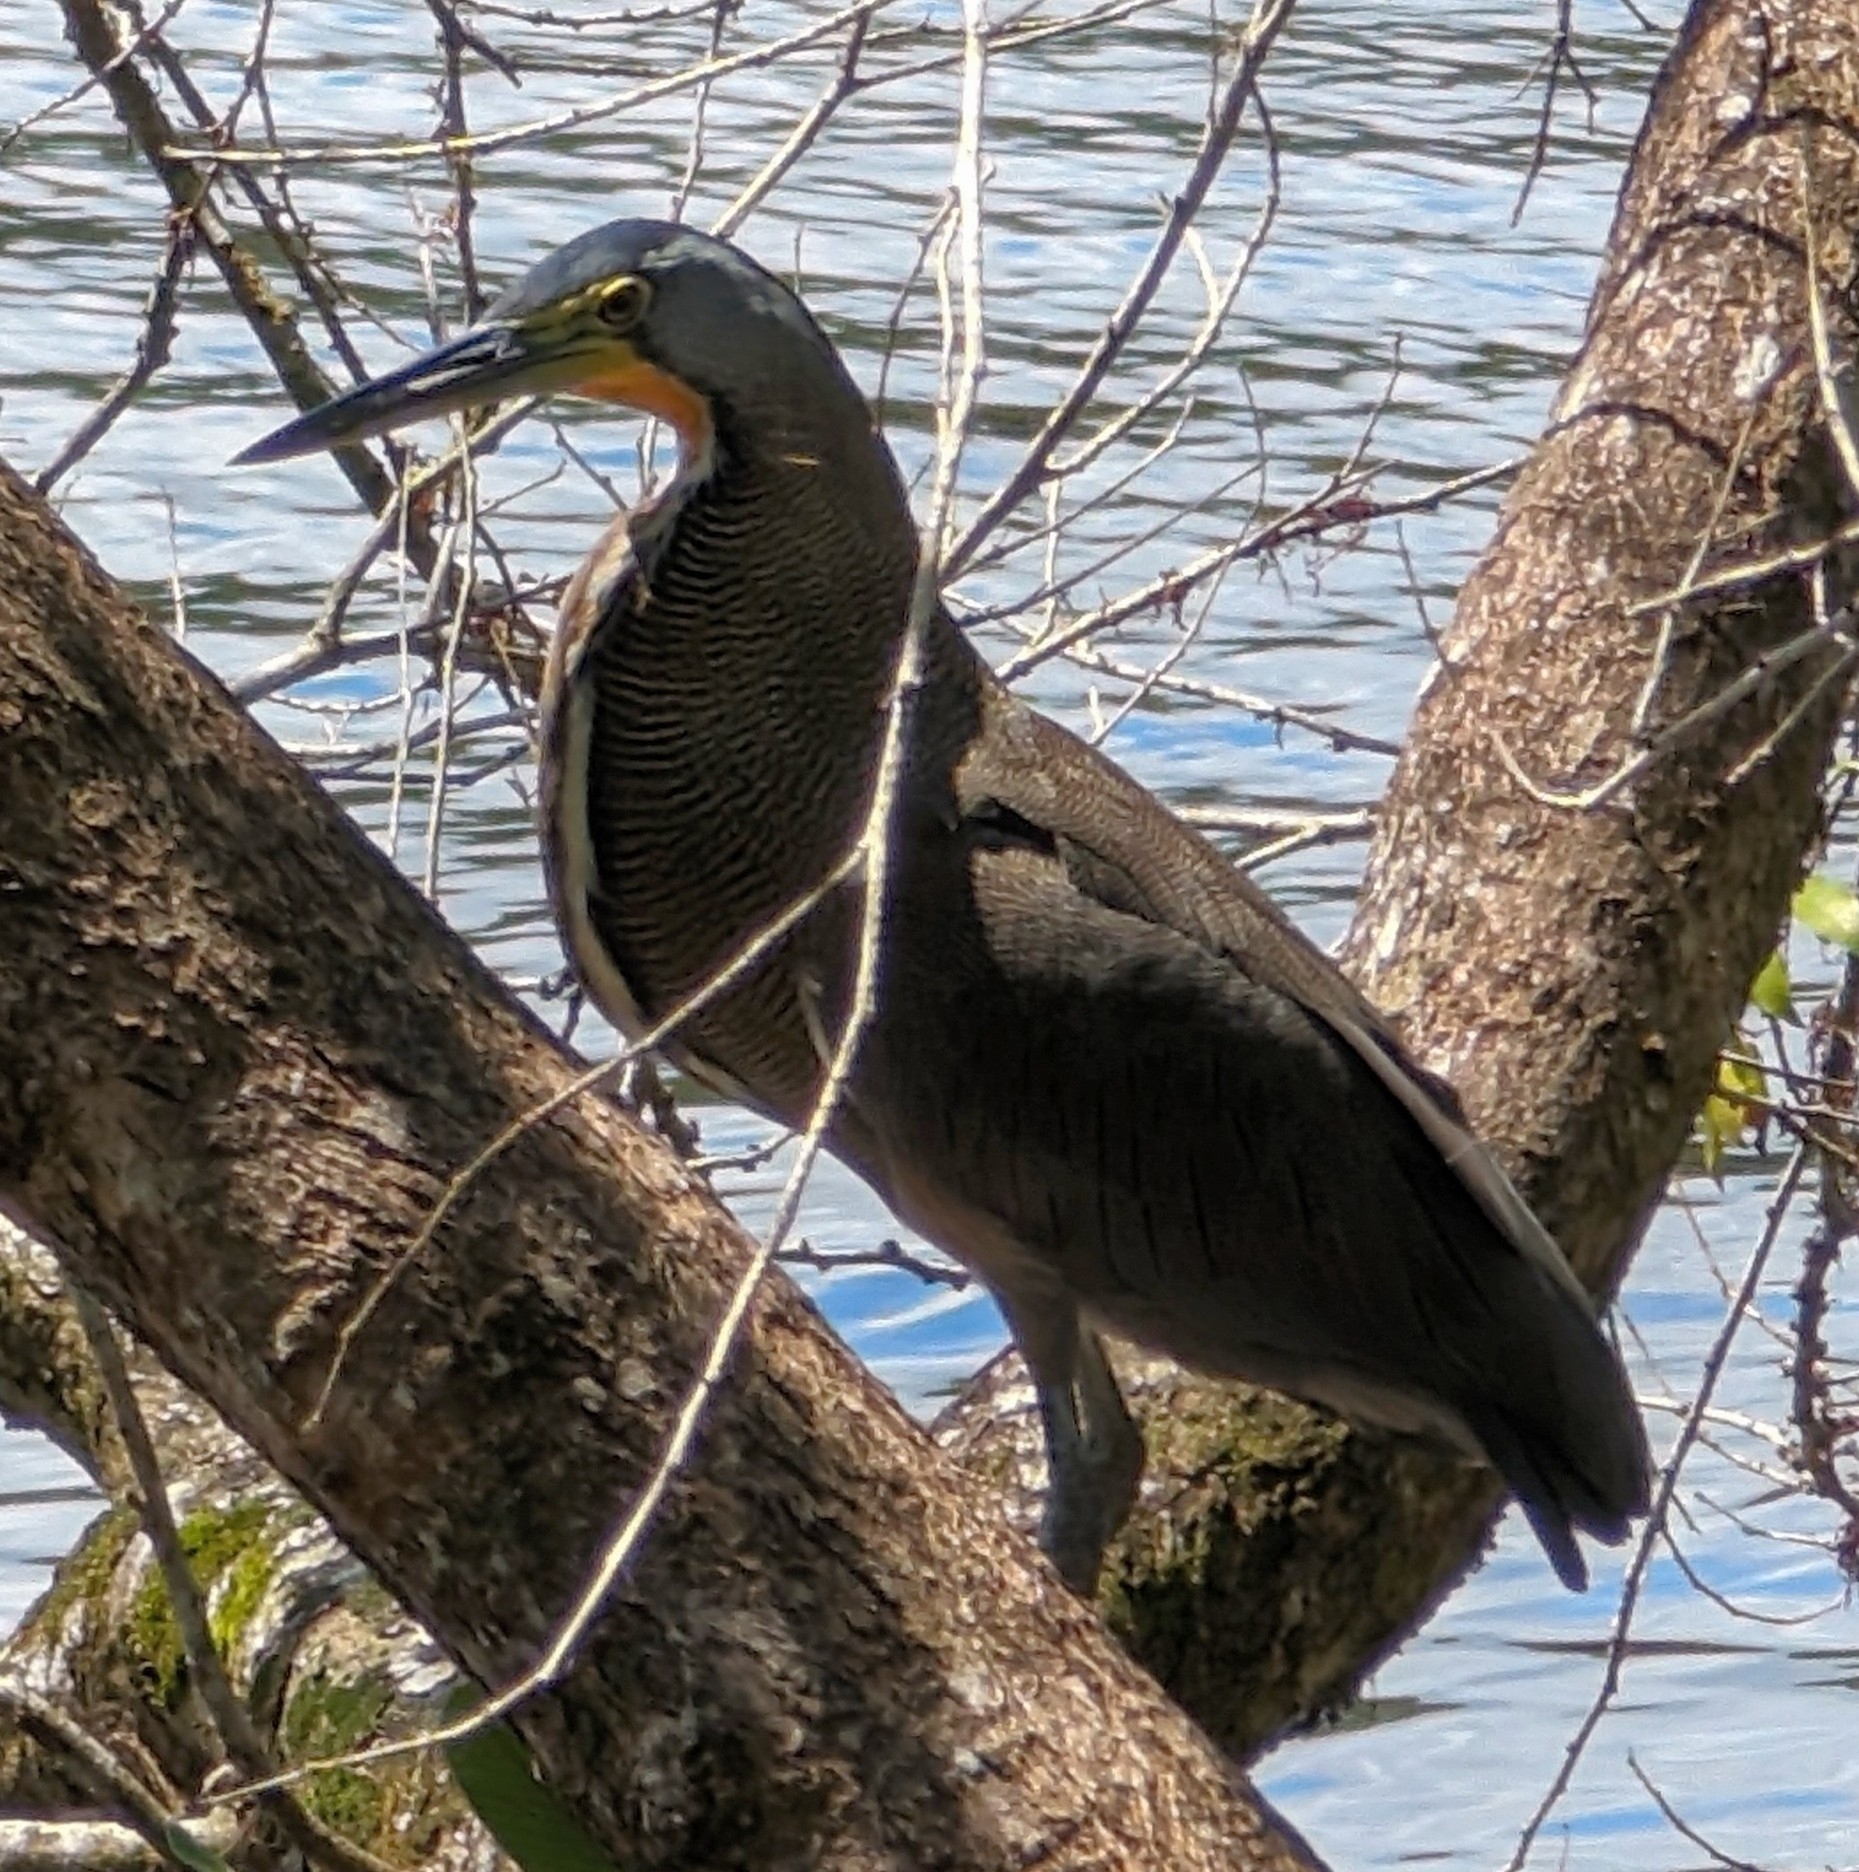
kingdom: Animalia
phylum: Chordata
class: Aves
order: Pelecaniformes
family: Ardeidae
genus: Tigrisoma
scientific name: Tigrisoma mexicanum
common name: Bare-throated tiger-heron
